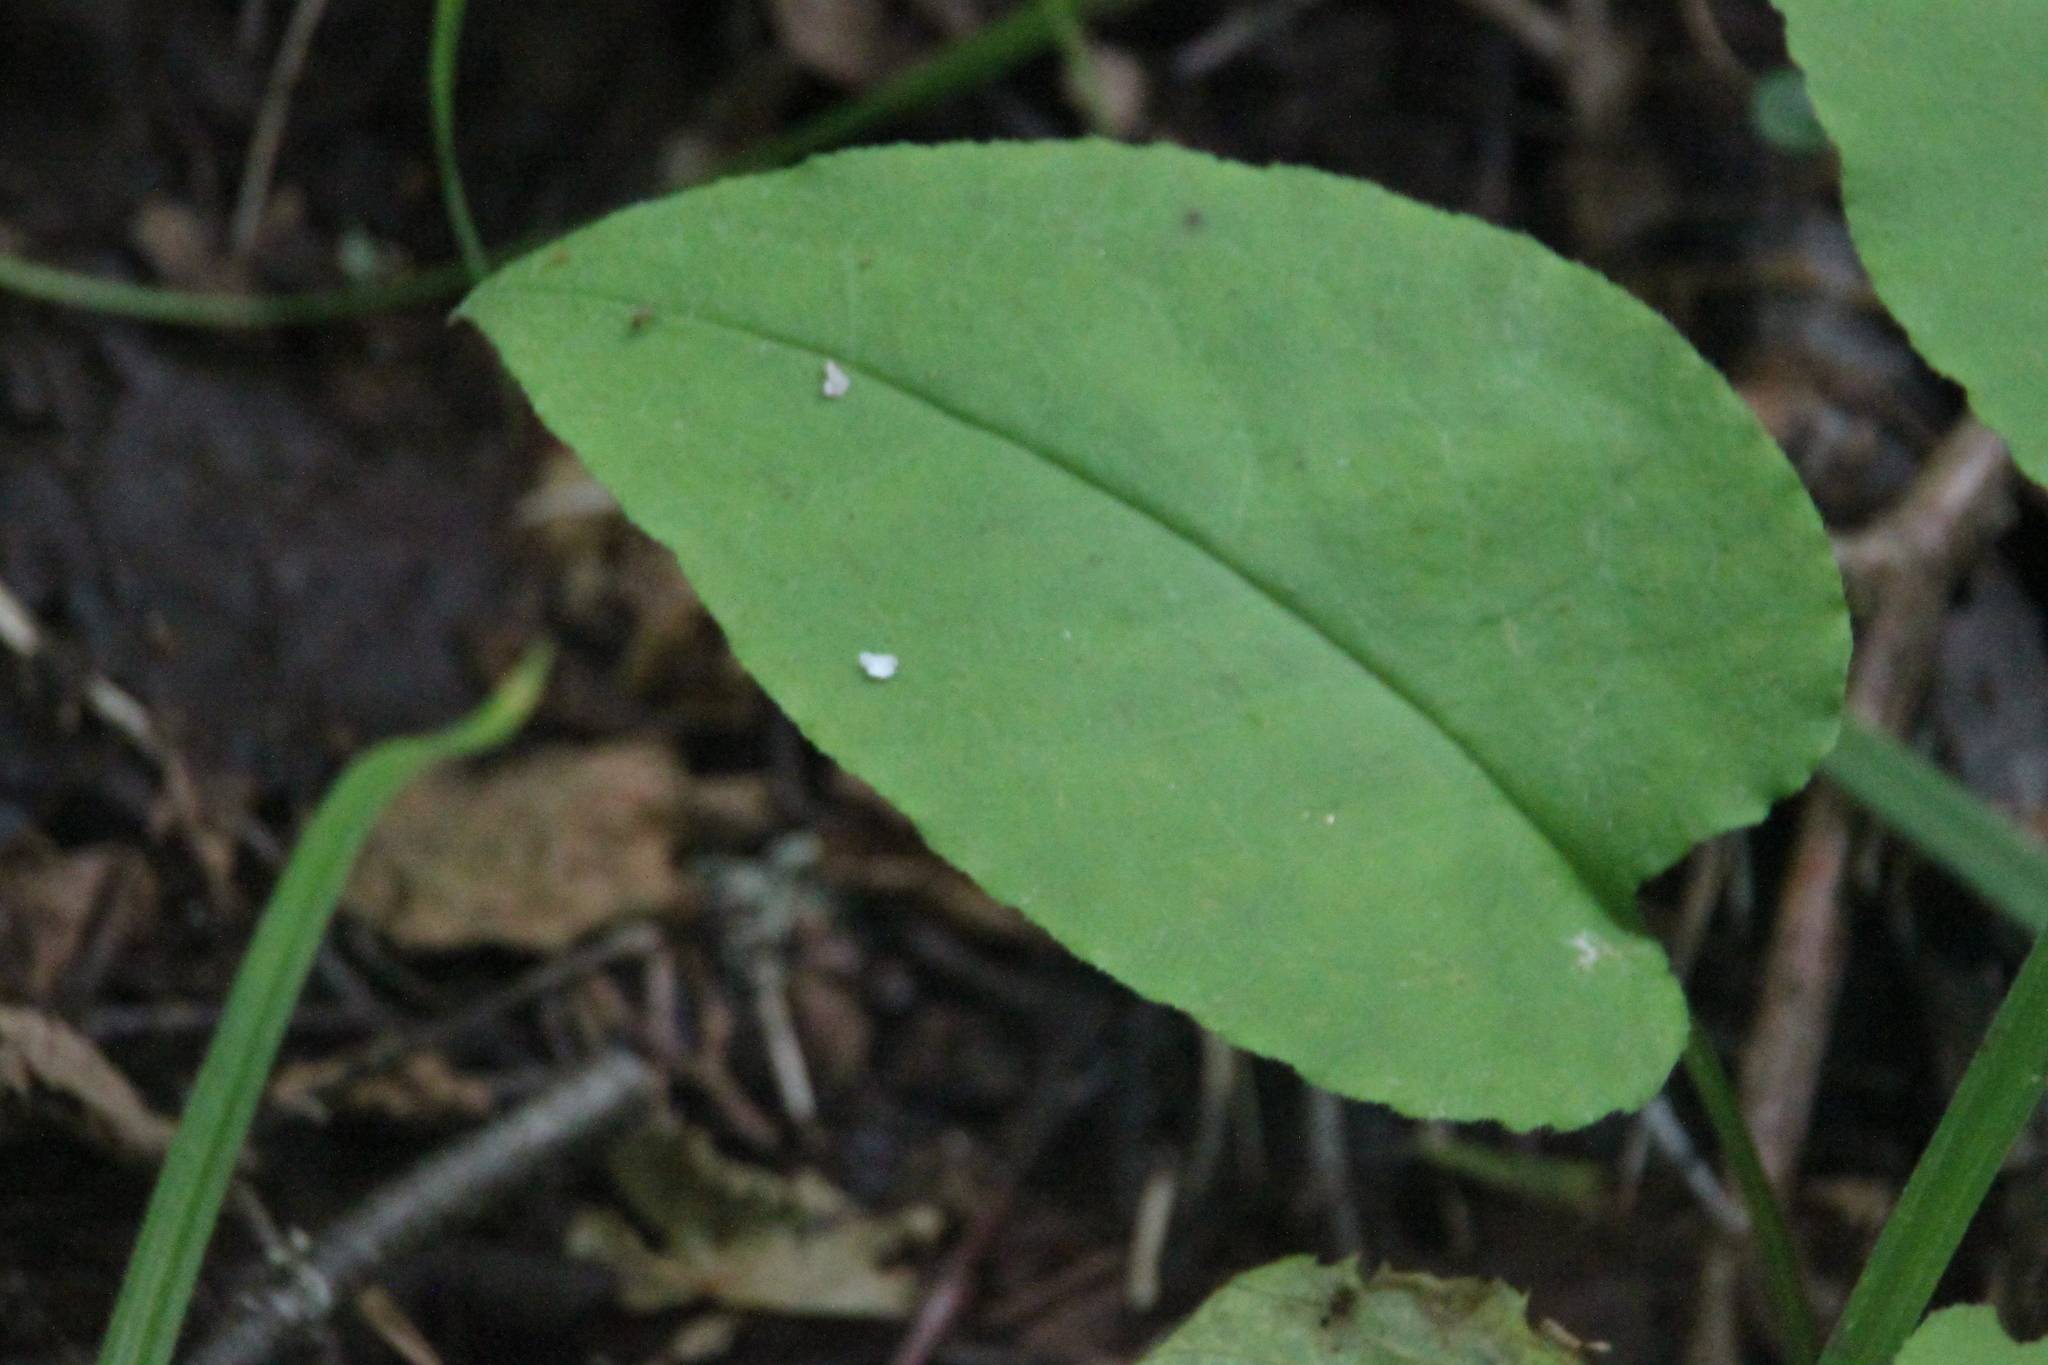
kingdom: Plantae
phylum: Tracheophyta
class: Magnoliopsida
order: Boraginales
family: Boraginaceae
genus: Pulmonaria
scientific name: Pulmonaria obscura
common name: Suffolk lungwort
